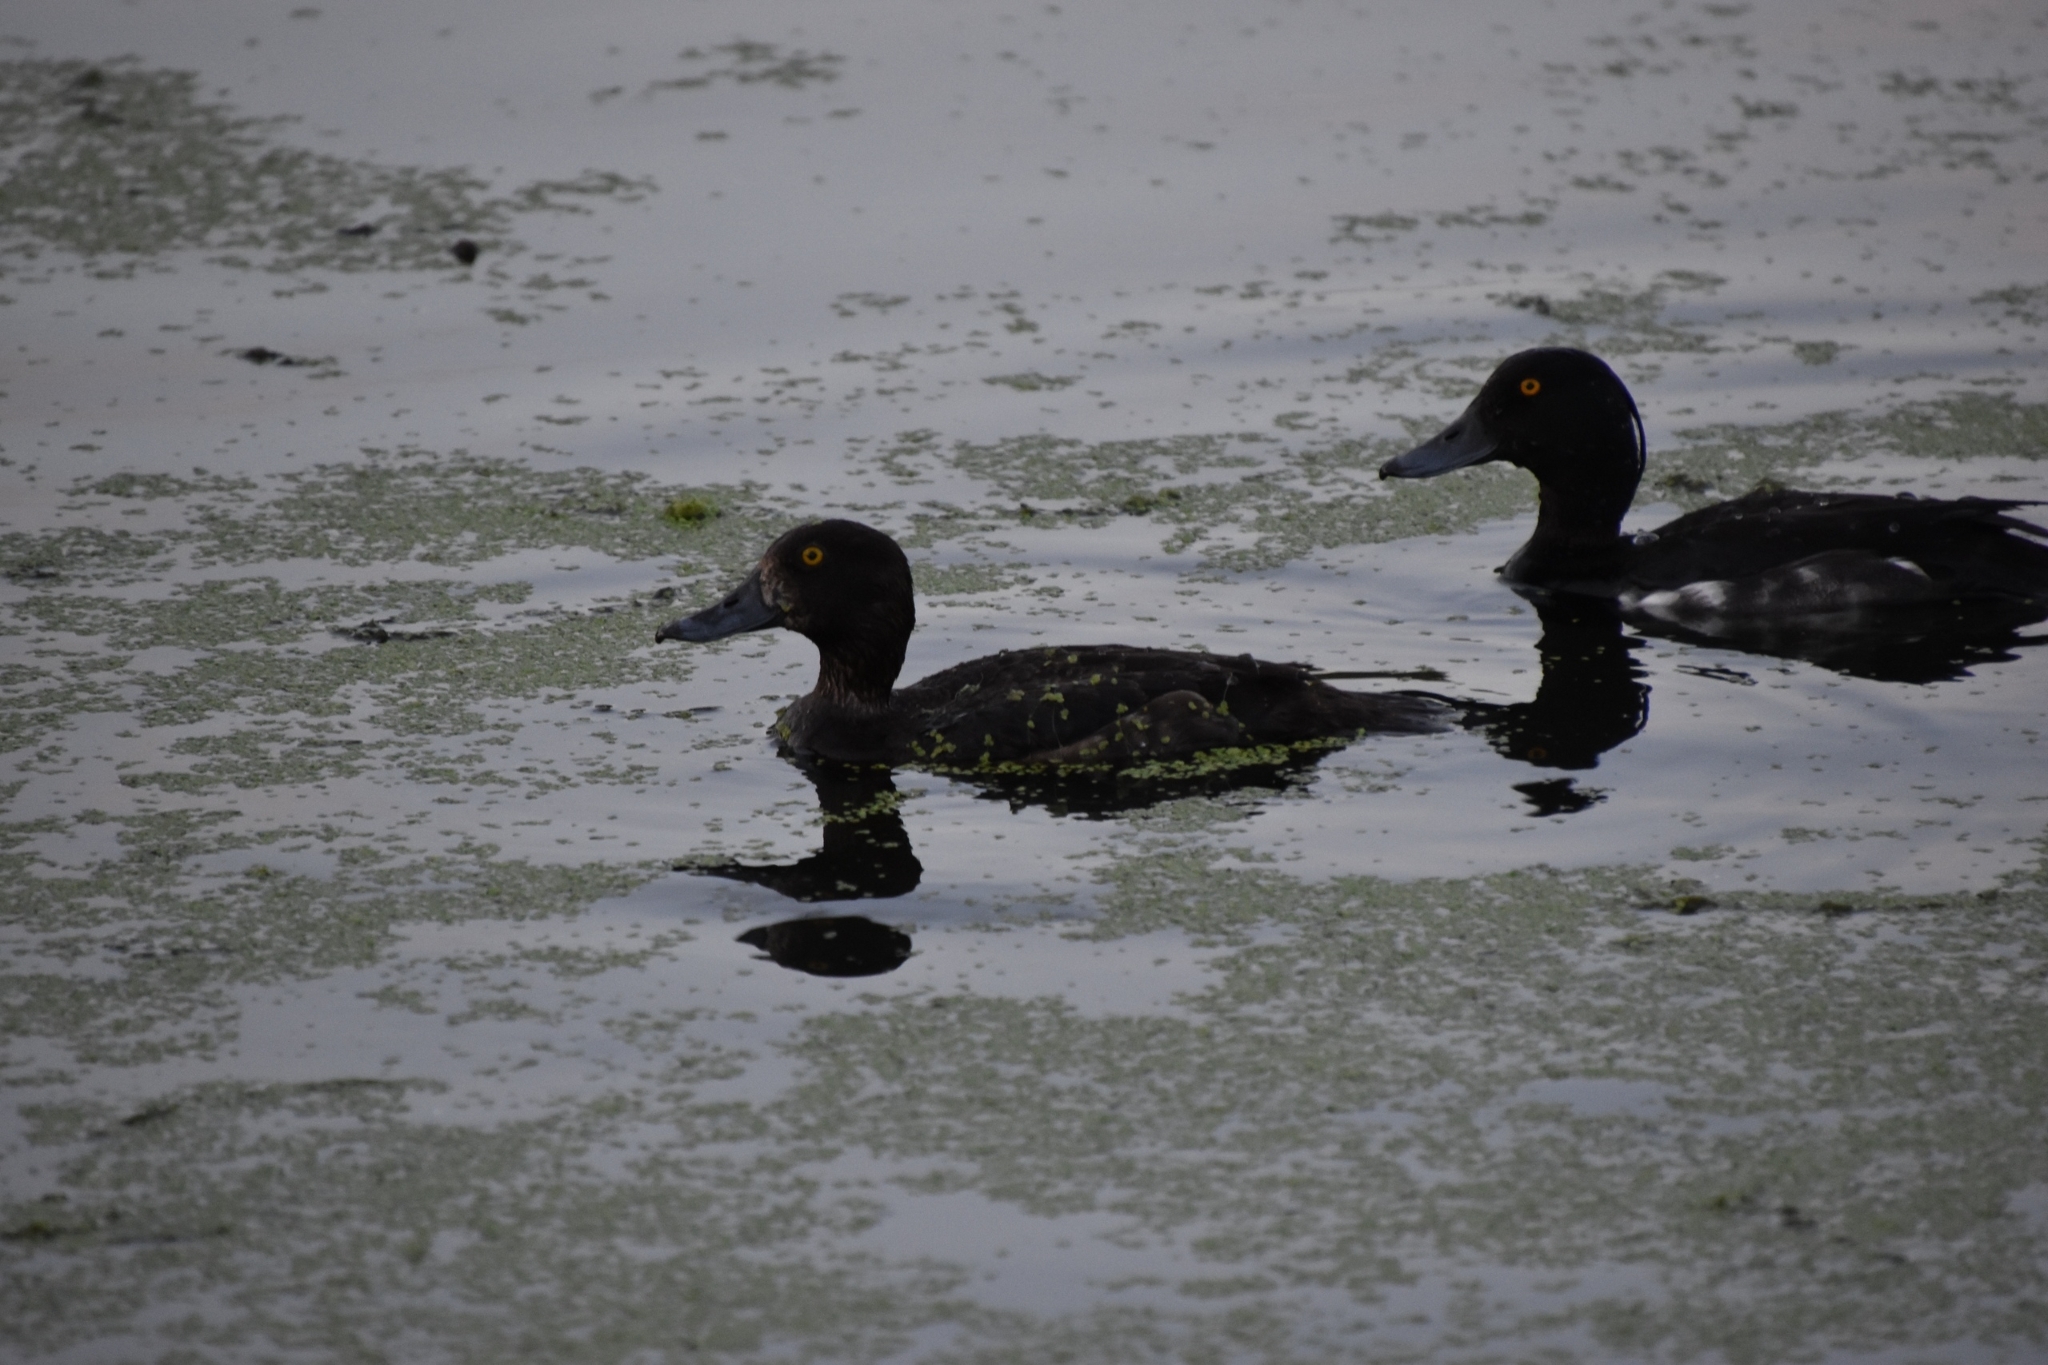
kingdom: Animalia
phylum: Chordata
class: Aves
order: Anseriformes
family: Anatidae
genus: Aythya
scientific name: Aythya fuligula
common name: Tufted duck
